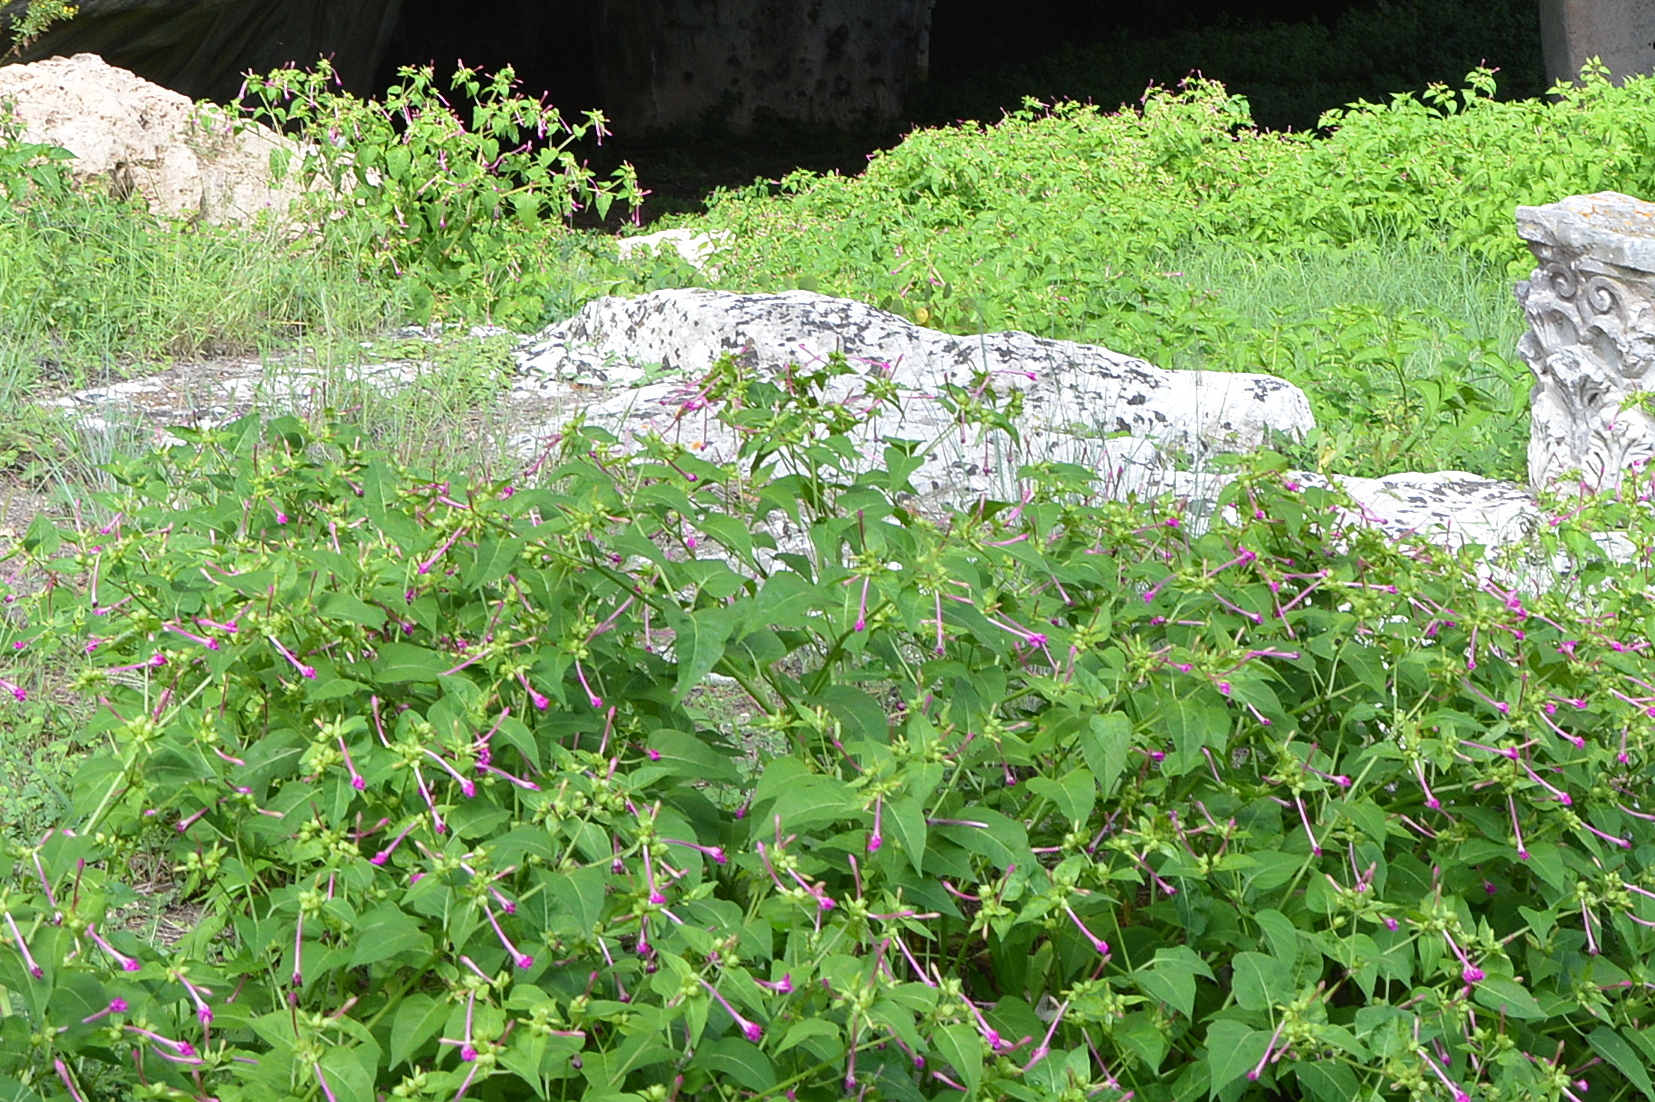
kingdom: Plantae
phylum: Tracheophyta
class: Magnoliopsida
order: Caryophyllales
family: Nyctaginaceae
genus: Mirabilis
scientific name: Mirabilis jalapa
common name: Marvel-of-peru
